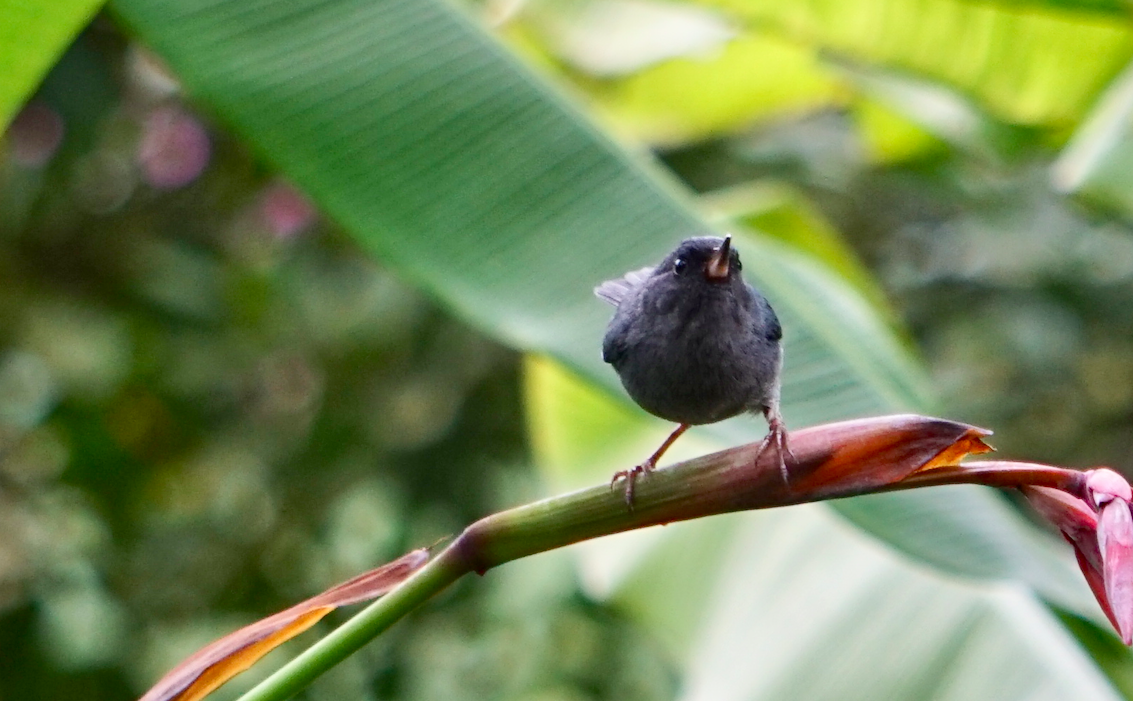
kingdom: Animalia
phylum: Chordata
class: Aves
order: Passeriformes
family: Thraupidae
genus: Diglossa
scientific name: Diglossa plumbea
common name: Slaty flowerpiercer
